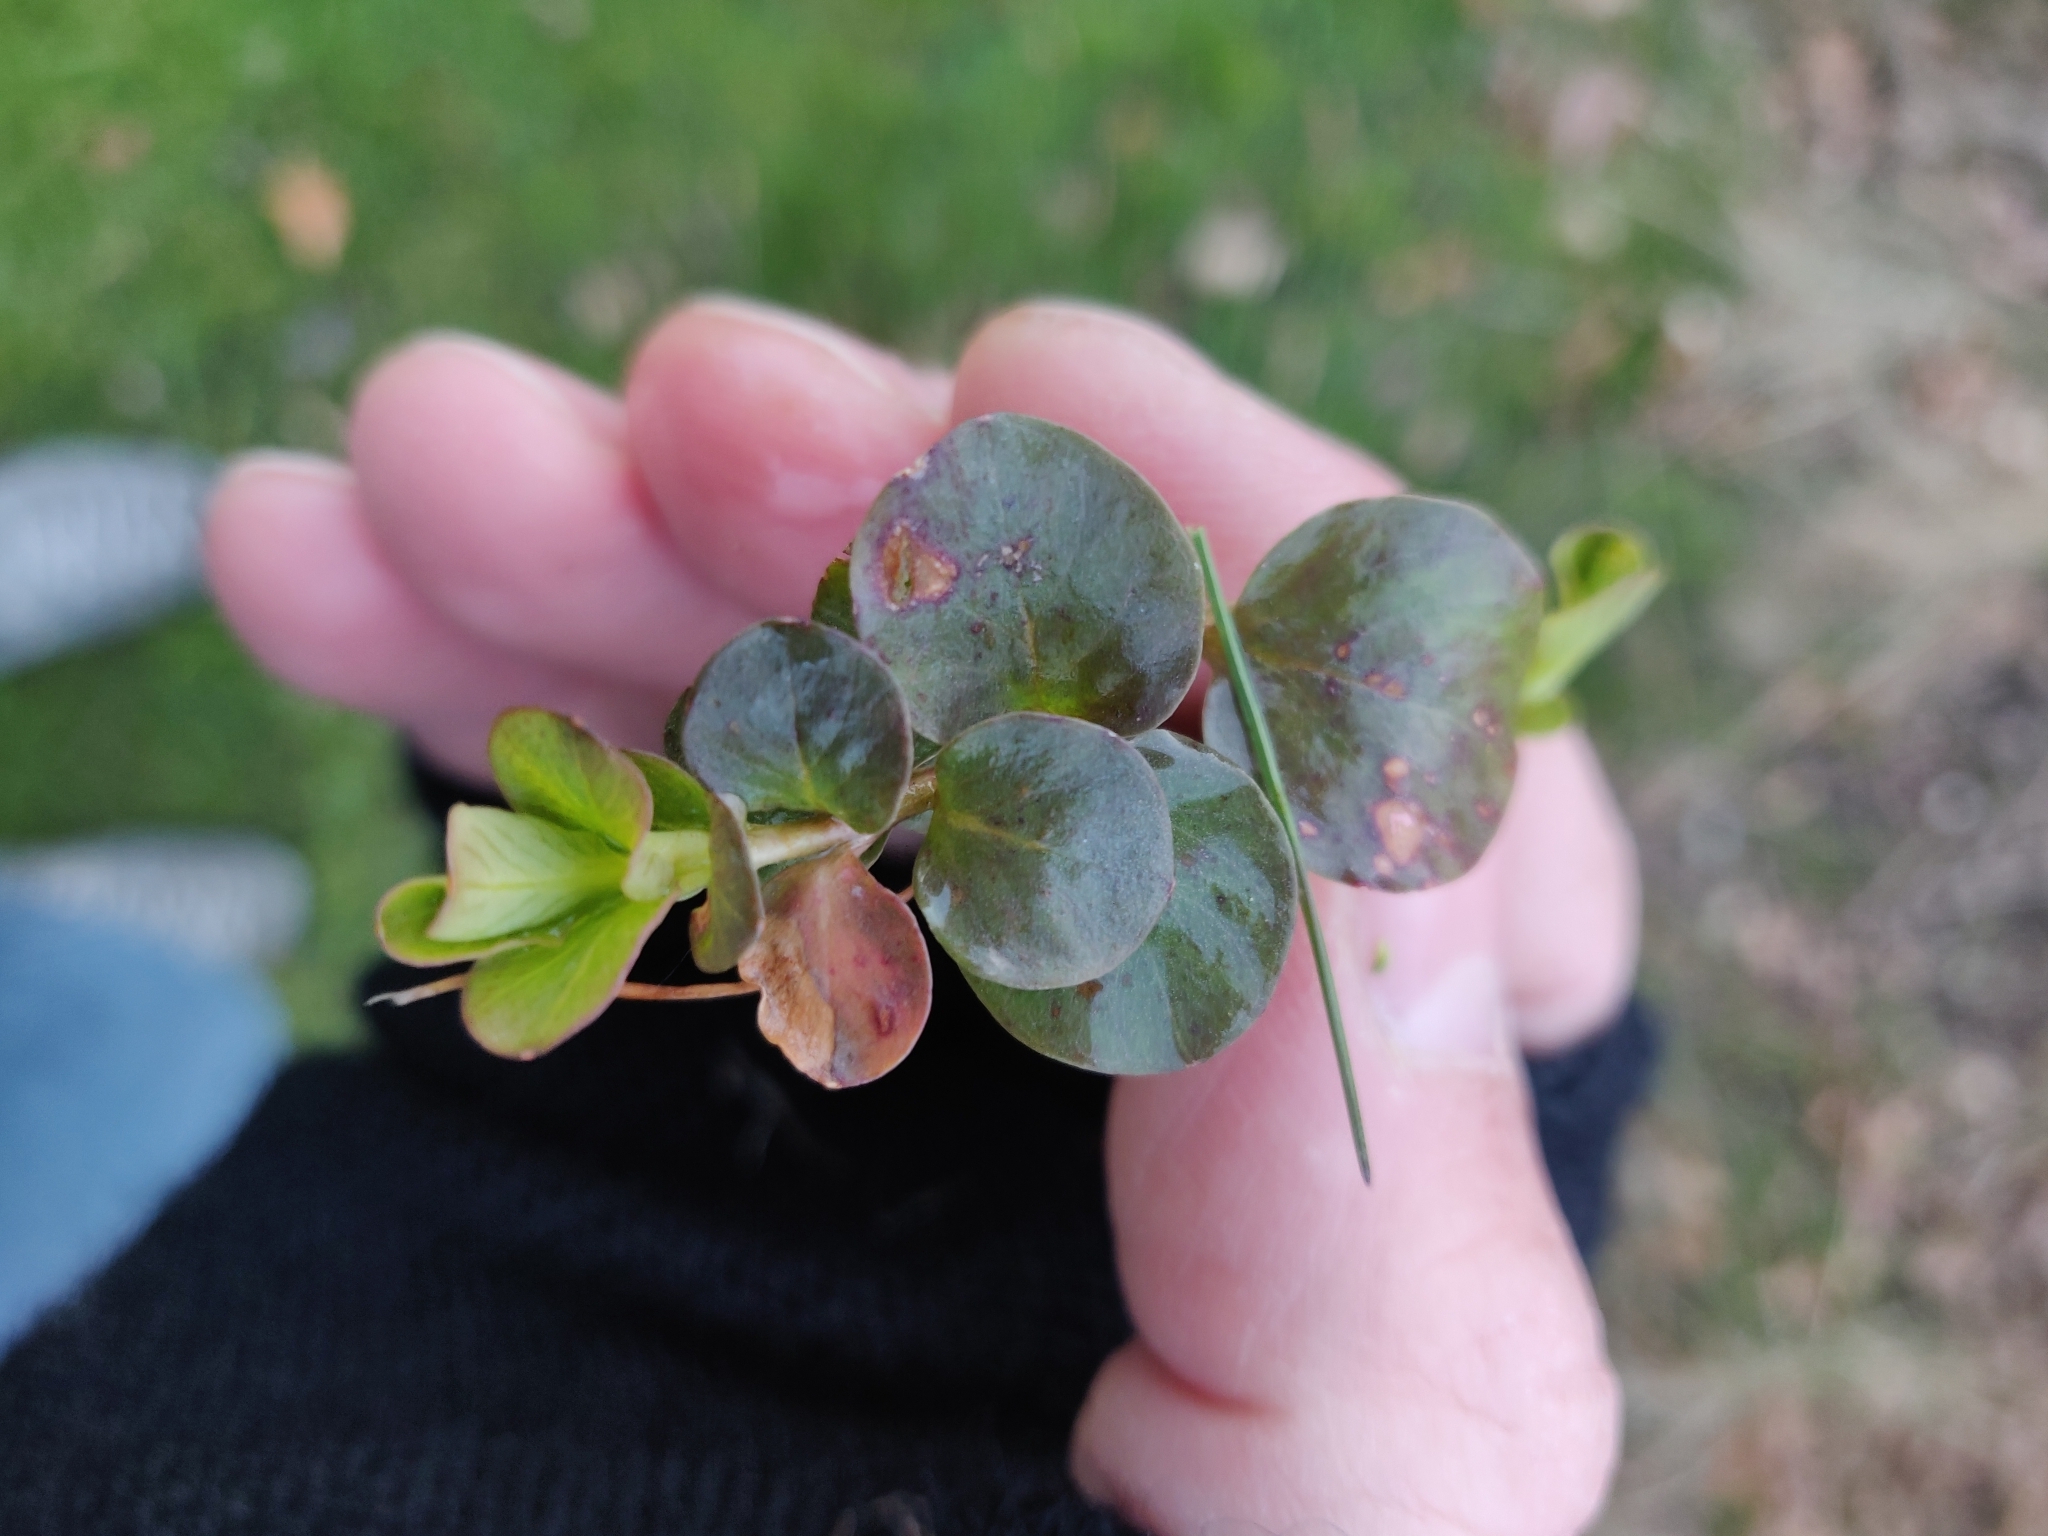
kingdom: Plantae
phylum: Tracheophyta
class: Magnoliopsida
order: Ericales
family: Primulaceae
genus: Lysimachia
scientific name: Lysimachia nummularia
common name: Moneywort
